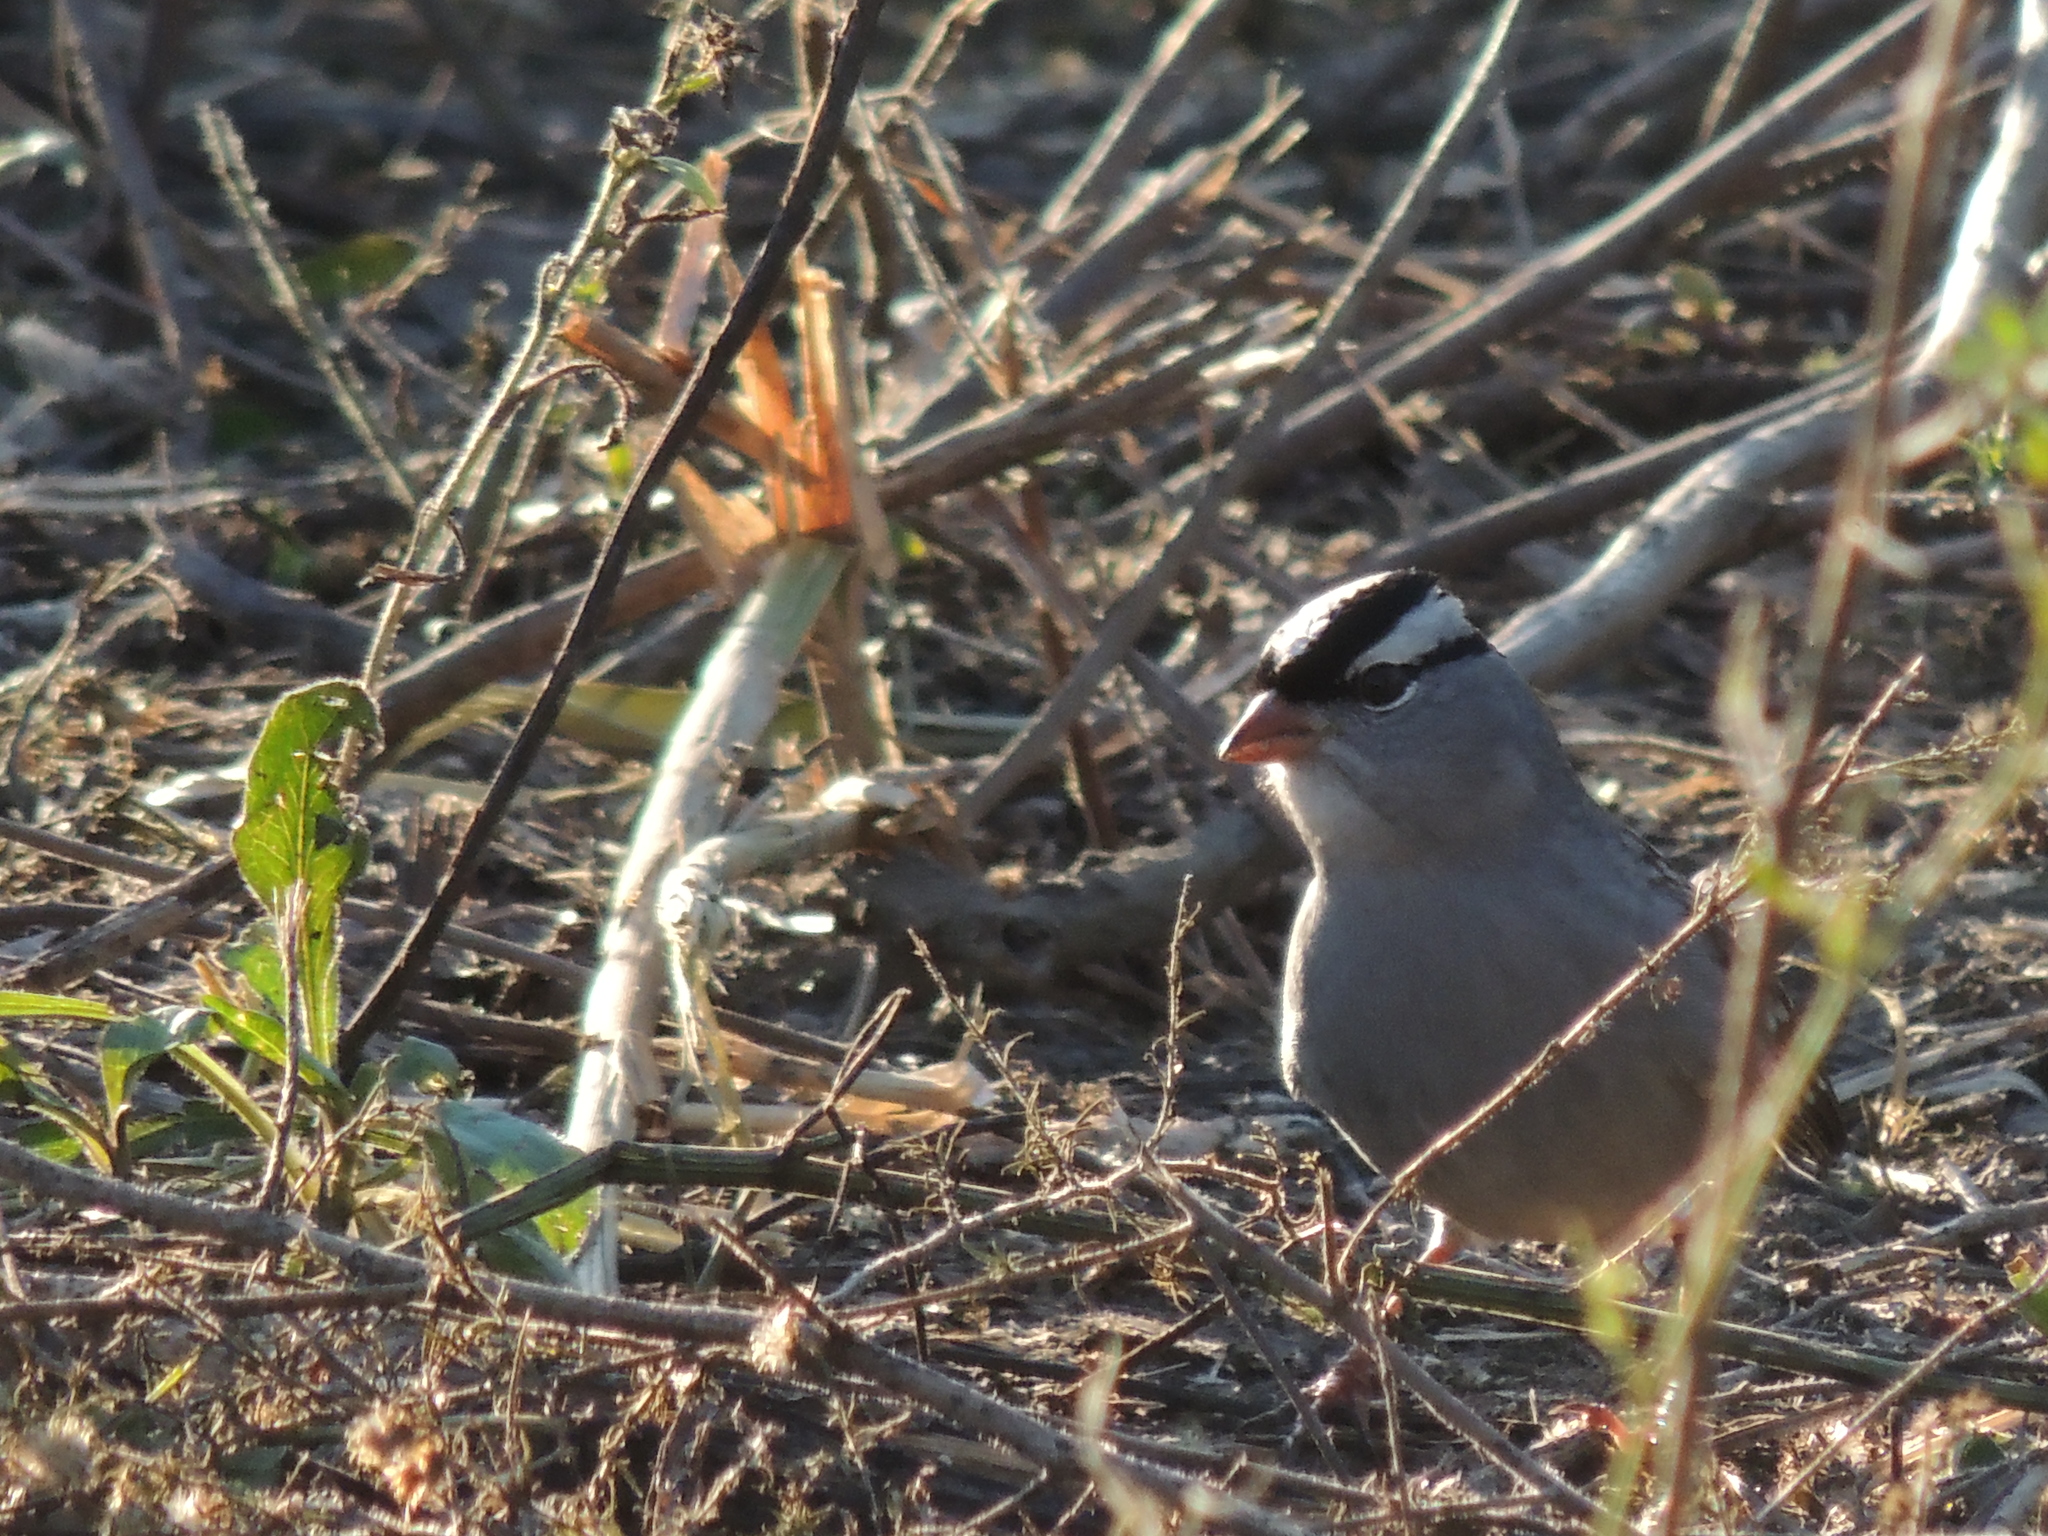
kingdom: Animalia
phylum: Chordata
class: Aves
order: Passeriformes
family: Passerellidae
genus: Zonotrichia
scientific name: Zonotrichia leucophrys
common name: White-crowned sparrow
